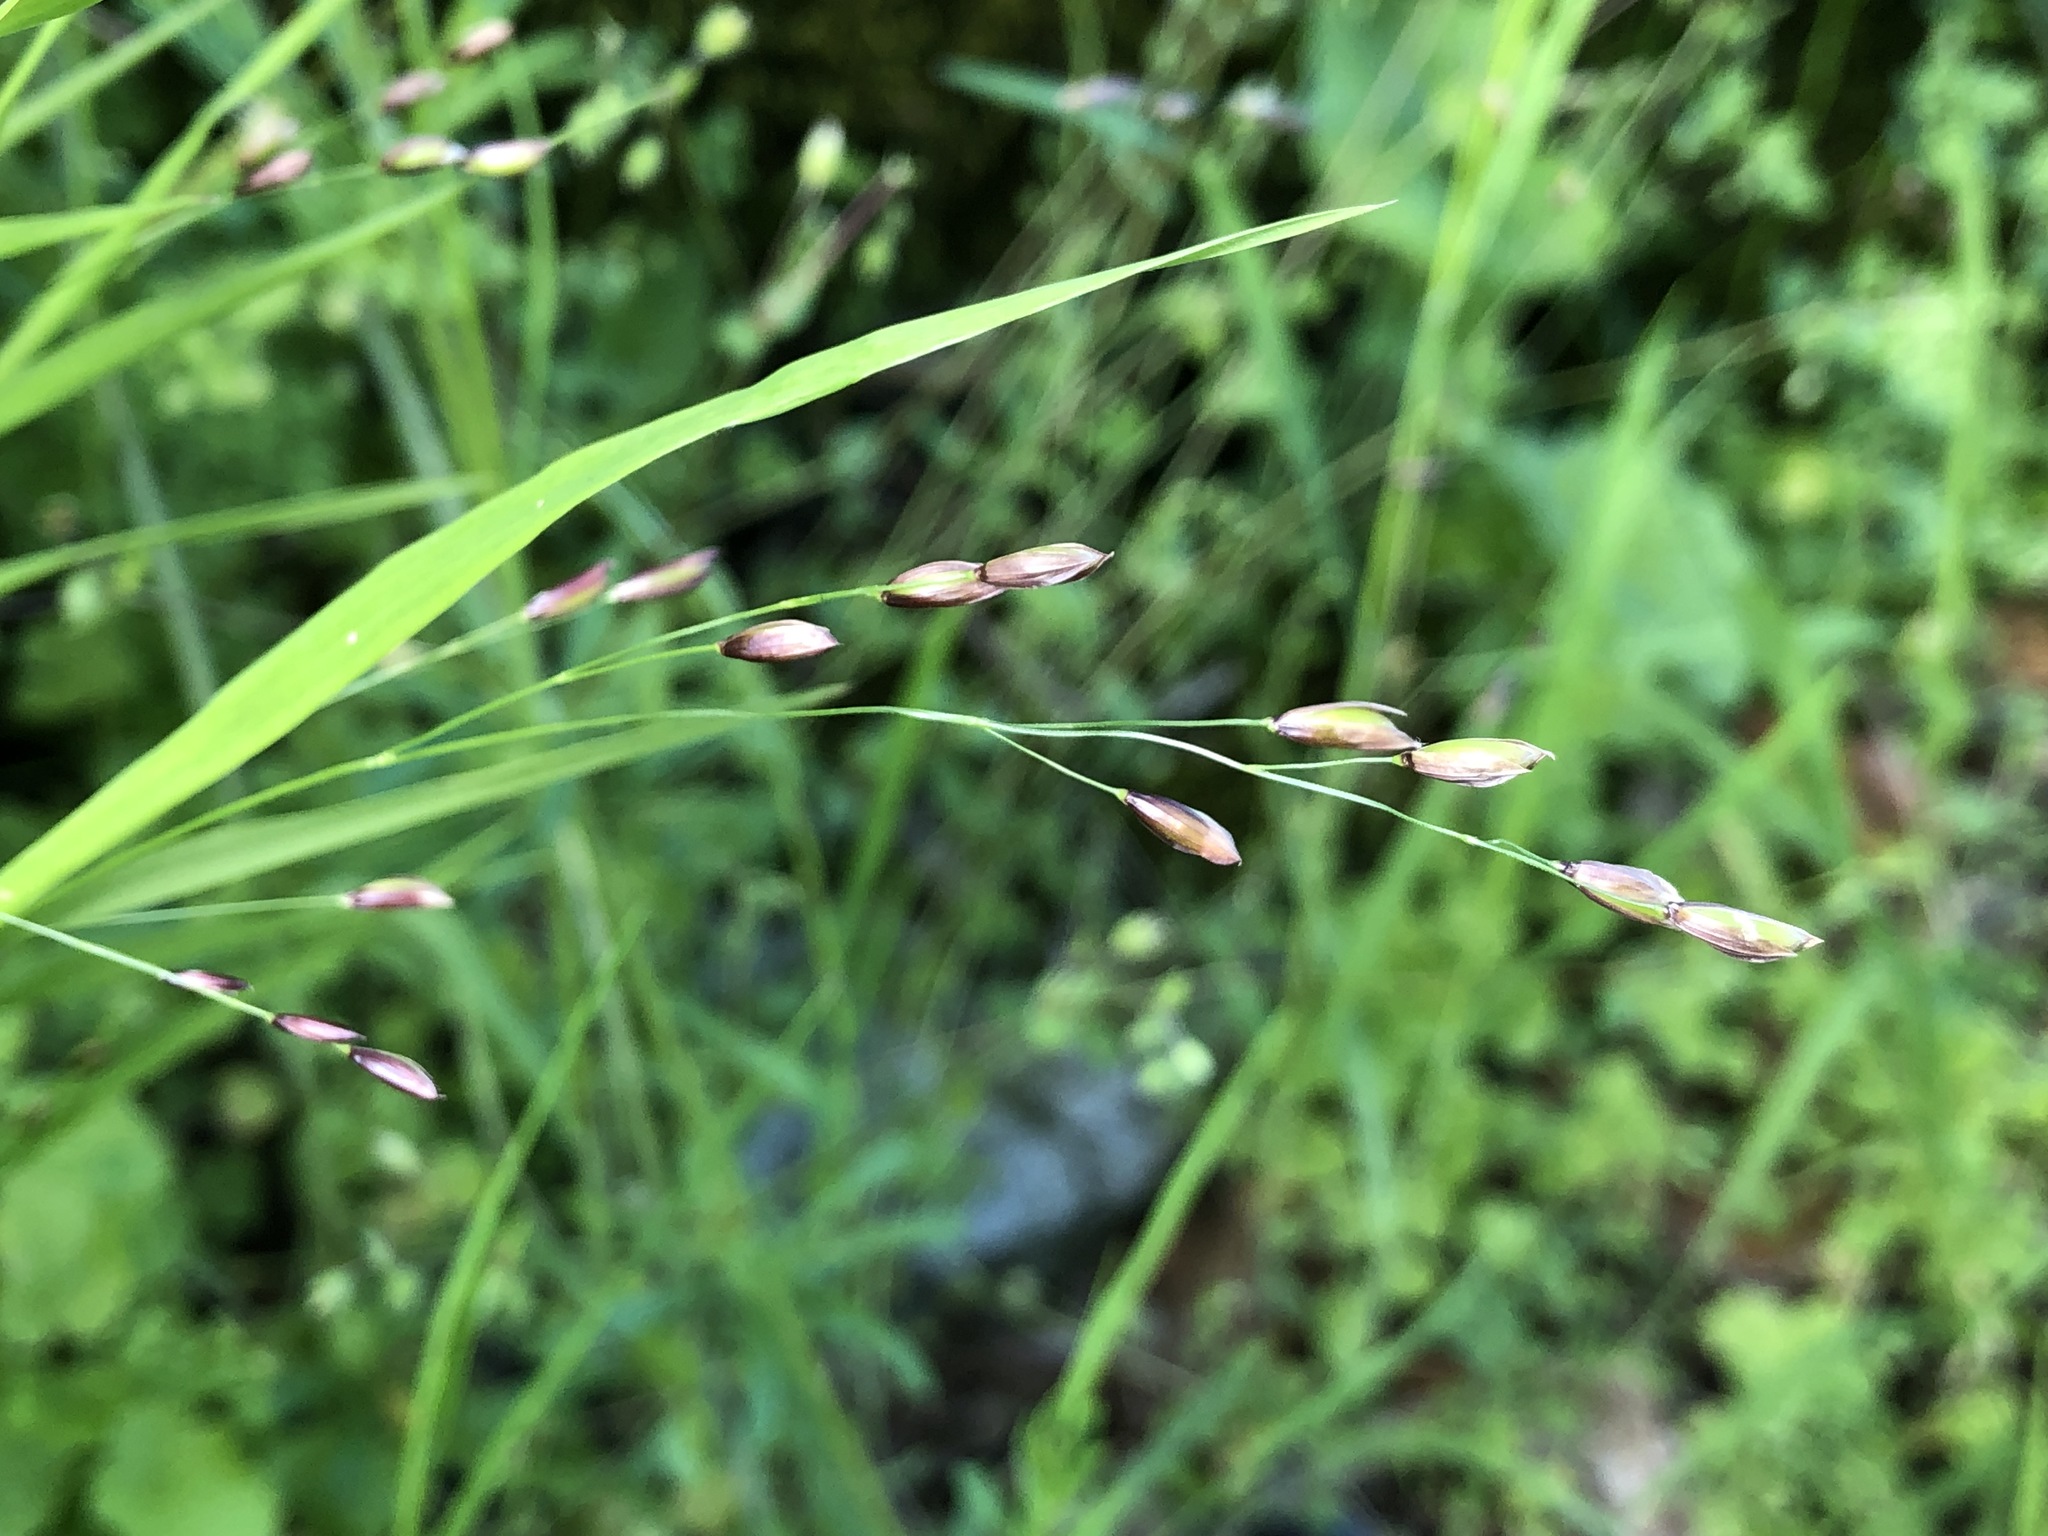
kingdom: Plantae
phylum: Tracheophyta
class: Liliopsida
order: Poales
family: Poaceae
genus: Melica
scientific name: Melica uniflora
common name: Wood melick
